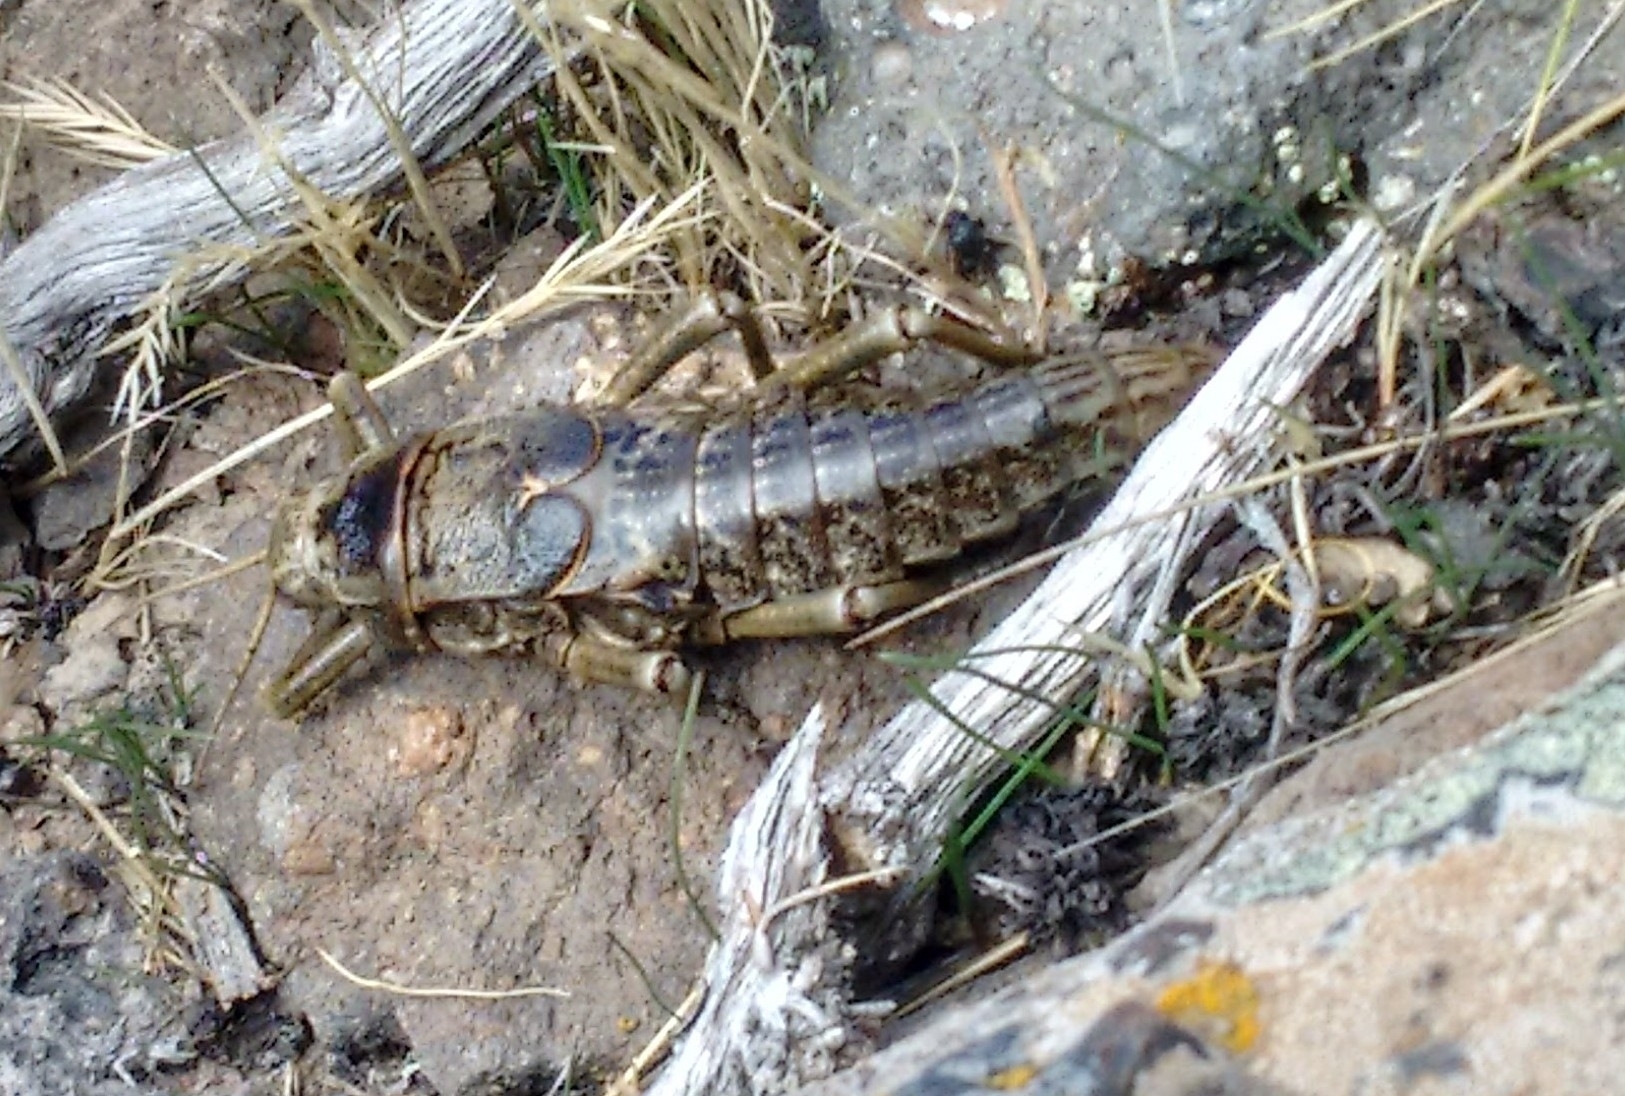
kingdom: Animalia
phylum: Arthropoda
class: Insecta
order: Phasmida
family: Agathemeridae
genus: Agathemera
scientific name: Agathemera millepunctata
